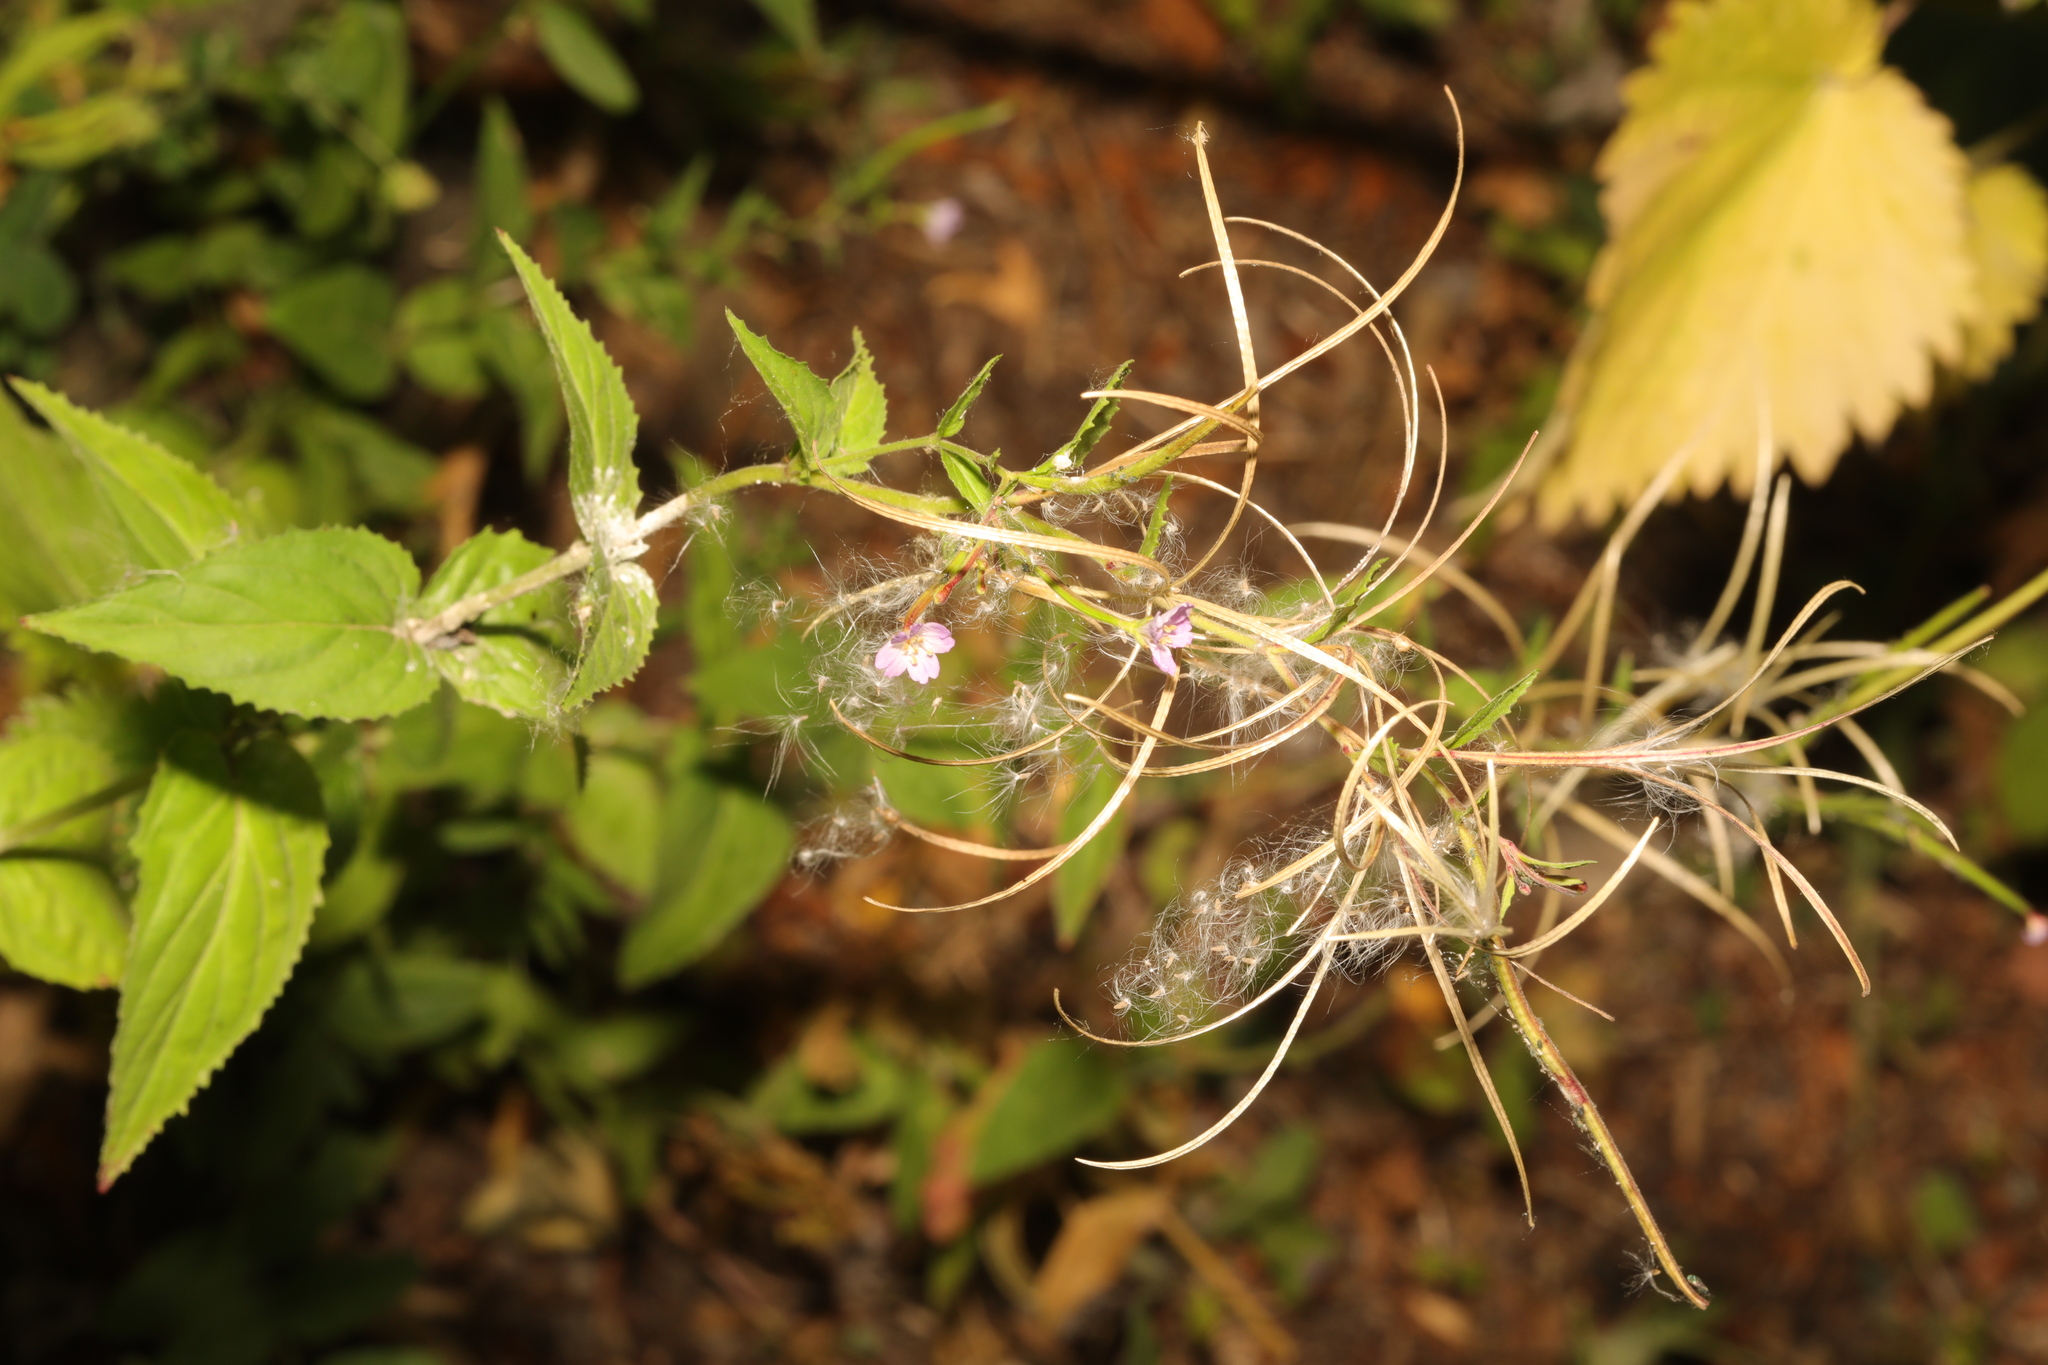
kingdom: Plantae
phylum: Tracheophyta
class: Magnoliopsida
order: Myrtales
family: Onagraceae
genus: Epilobium
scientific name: Epilobium montanum
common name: Broad-leaved willowherb
